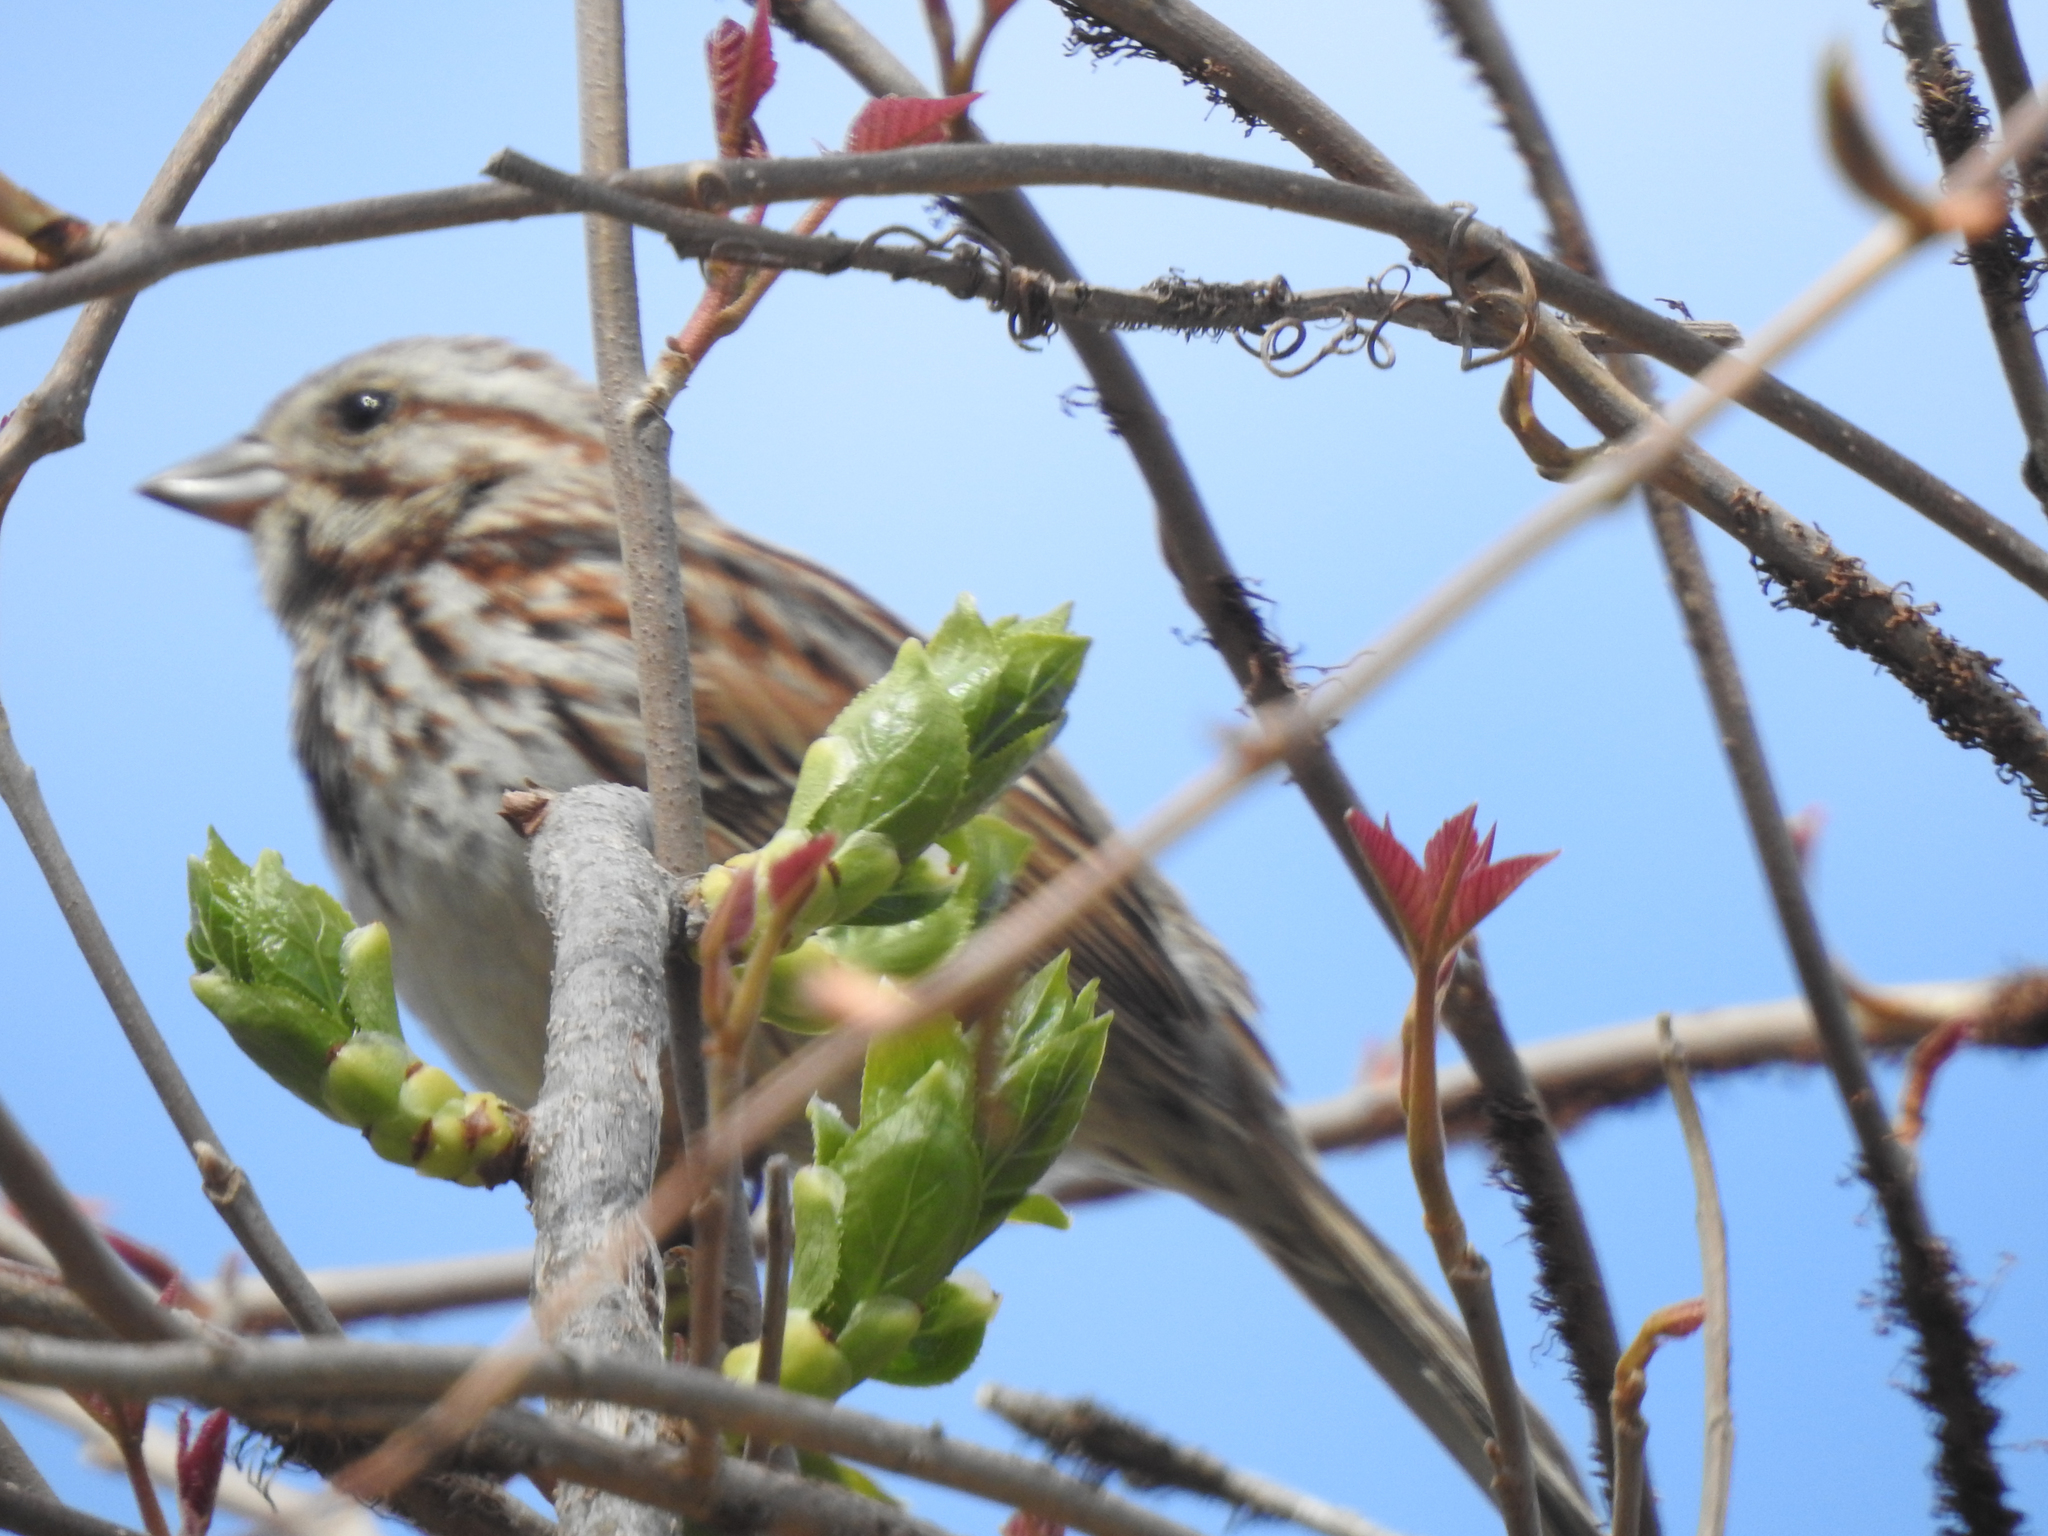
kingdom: Animalia
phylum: Chordata
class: Aves
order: Passeriformes
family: Passerellidae
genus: Melospiza
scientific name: Melospiza melodia
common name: Song sparrow
